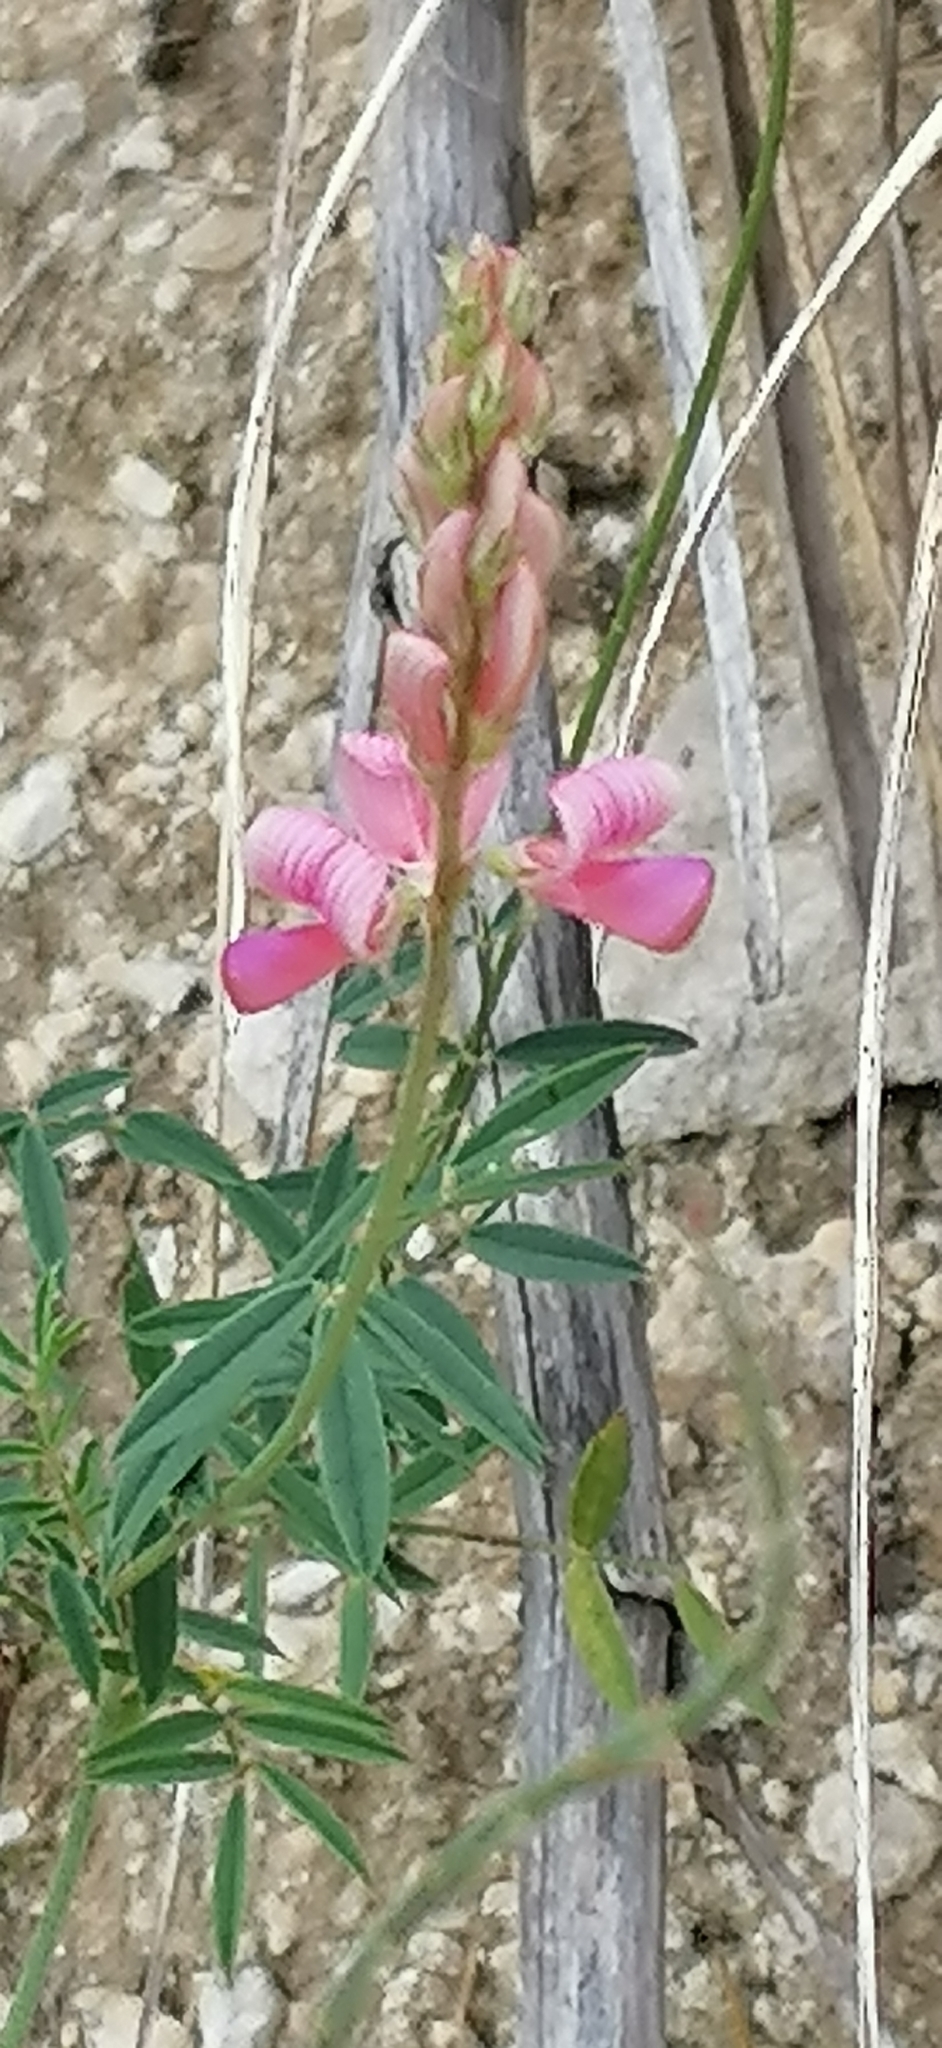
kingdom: Plantae
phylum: Tracheophyta
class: Magnoliopsida
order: Fabales
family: Fabaceae
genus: Onobrychis
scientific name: Onobrychis arenaria
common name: Sand esparcet
